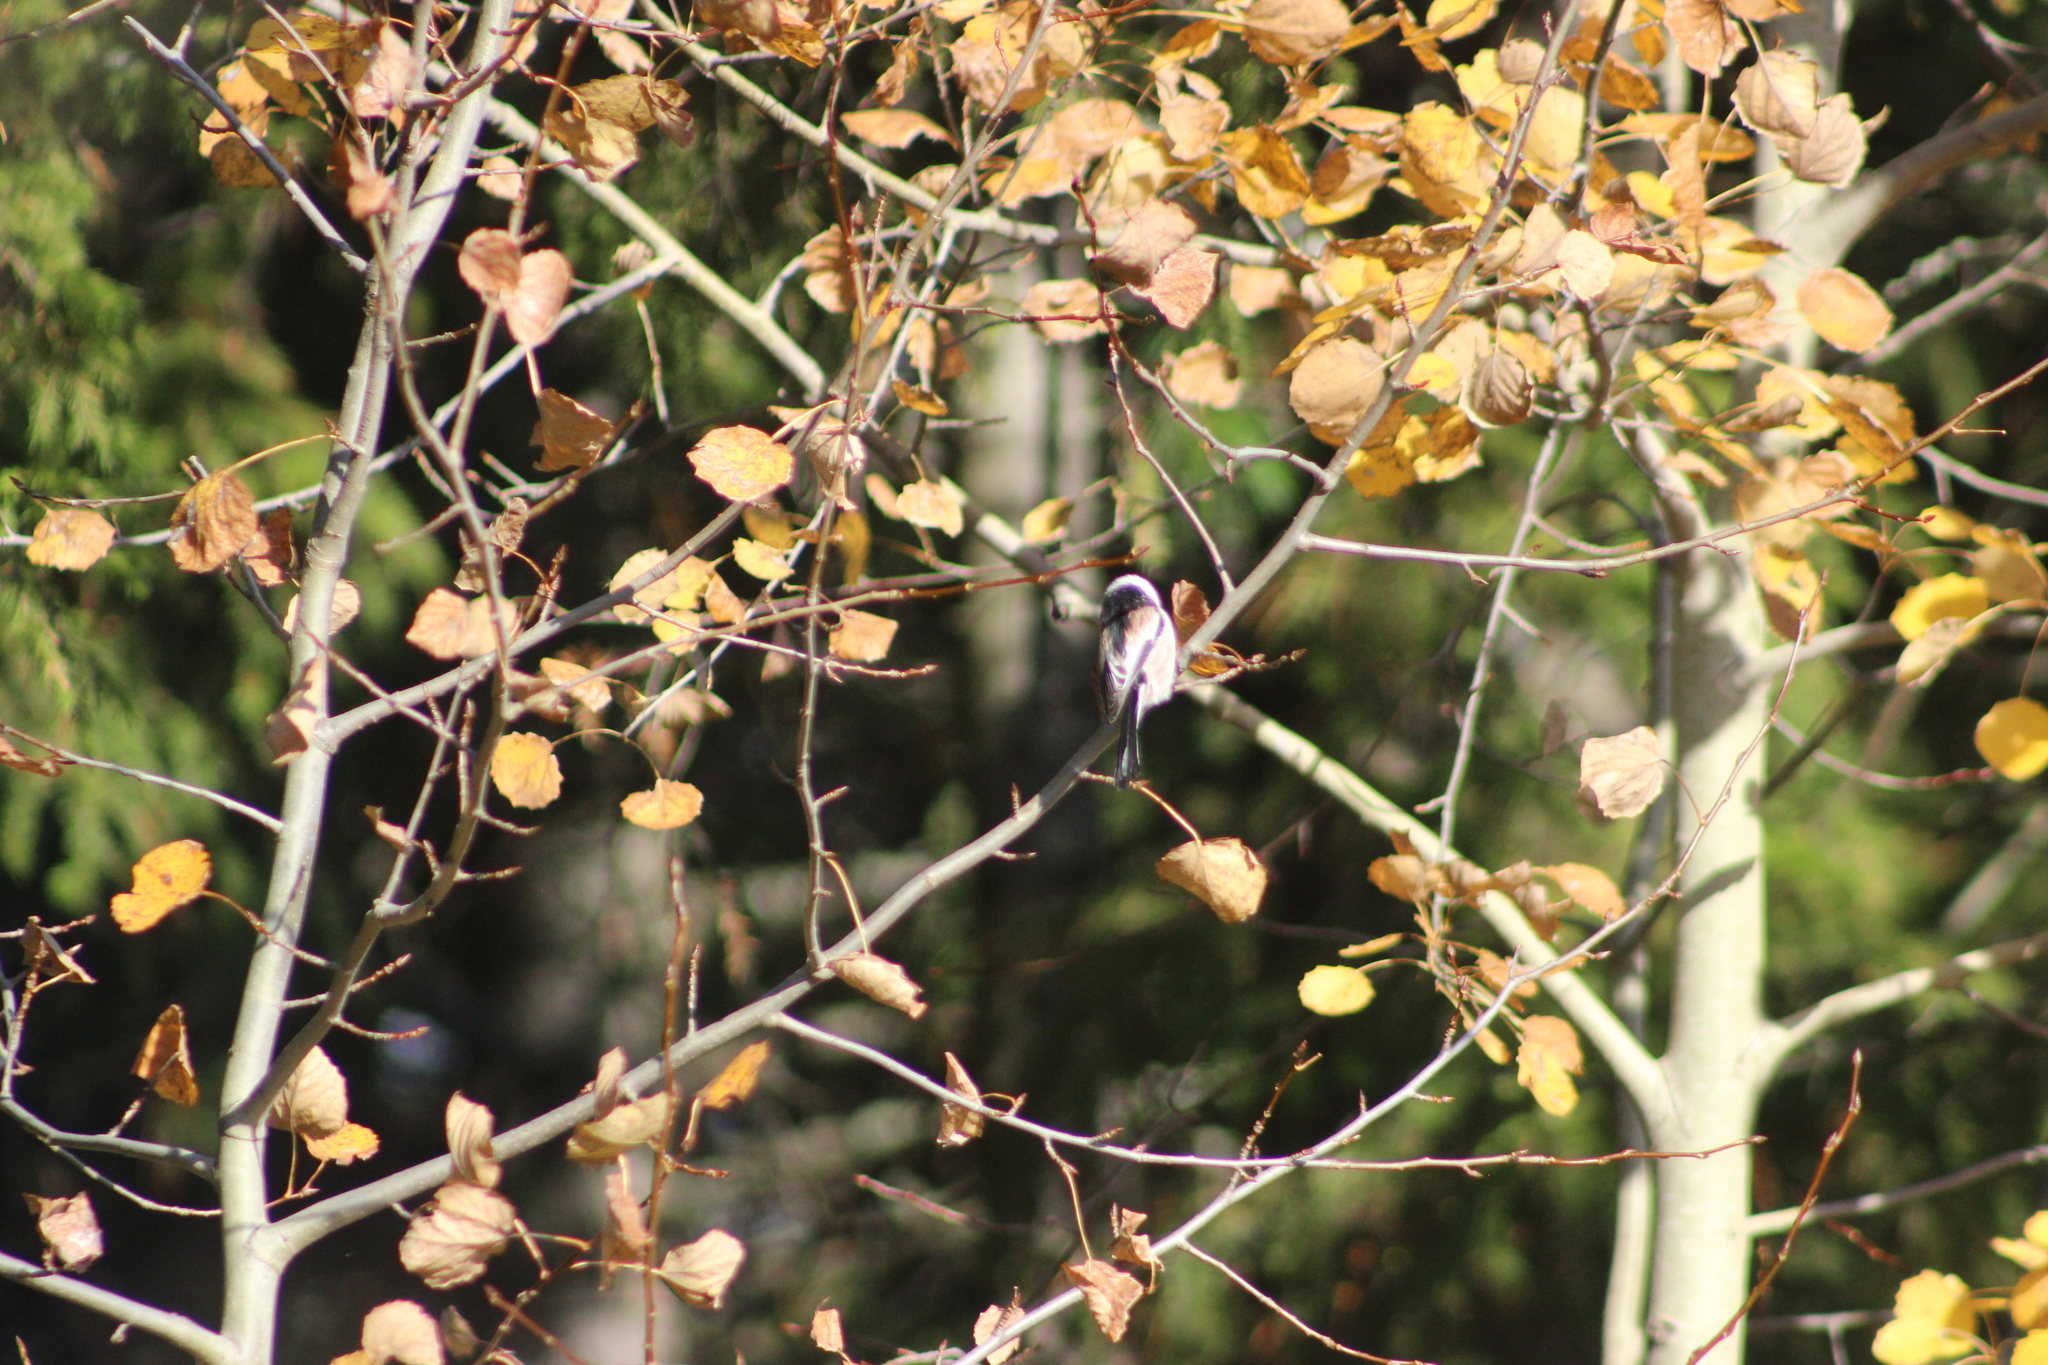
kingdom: Animalia
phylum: Chordata
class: Aves
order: Passeriformes
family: Aegithalidae
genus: Aegithalos
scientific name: Aegithalos caudatus
